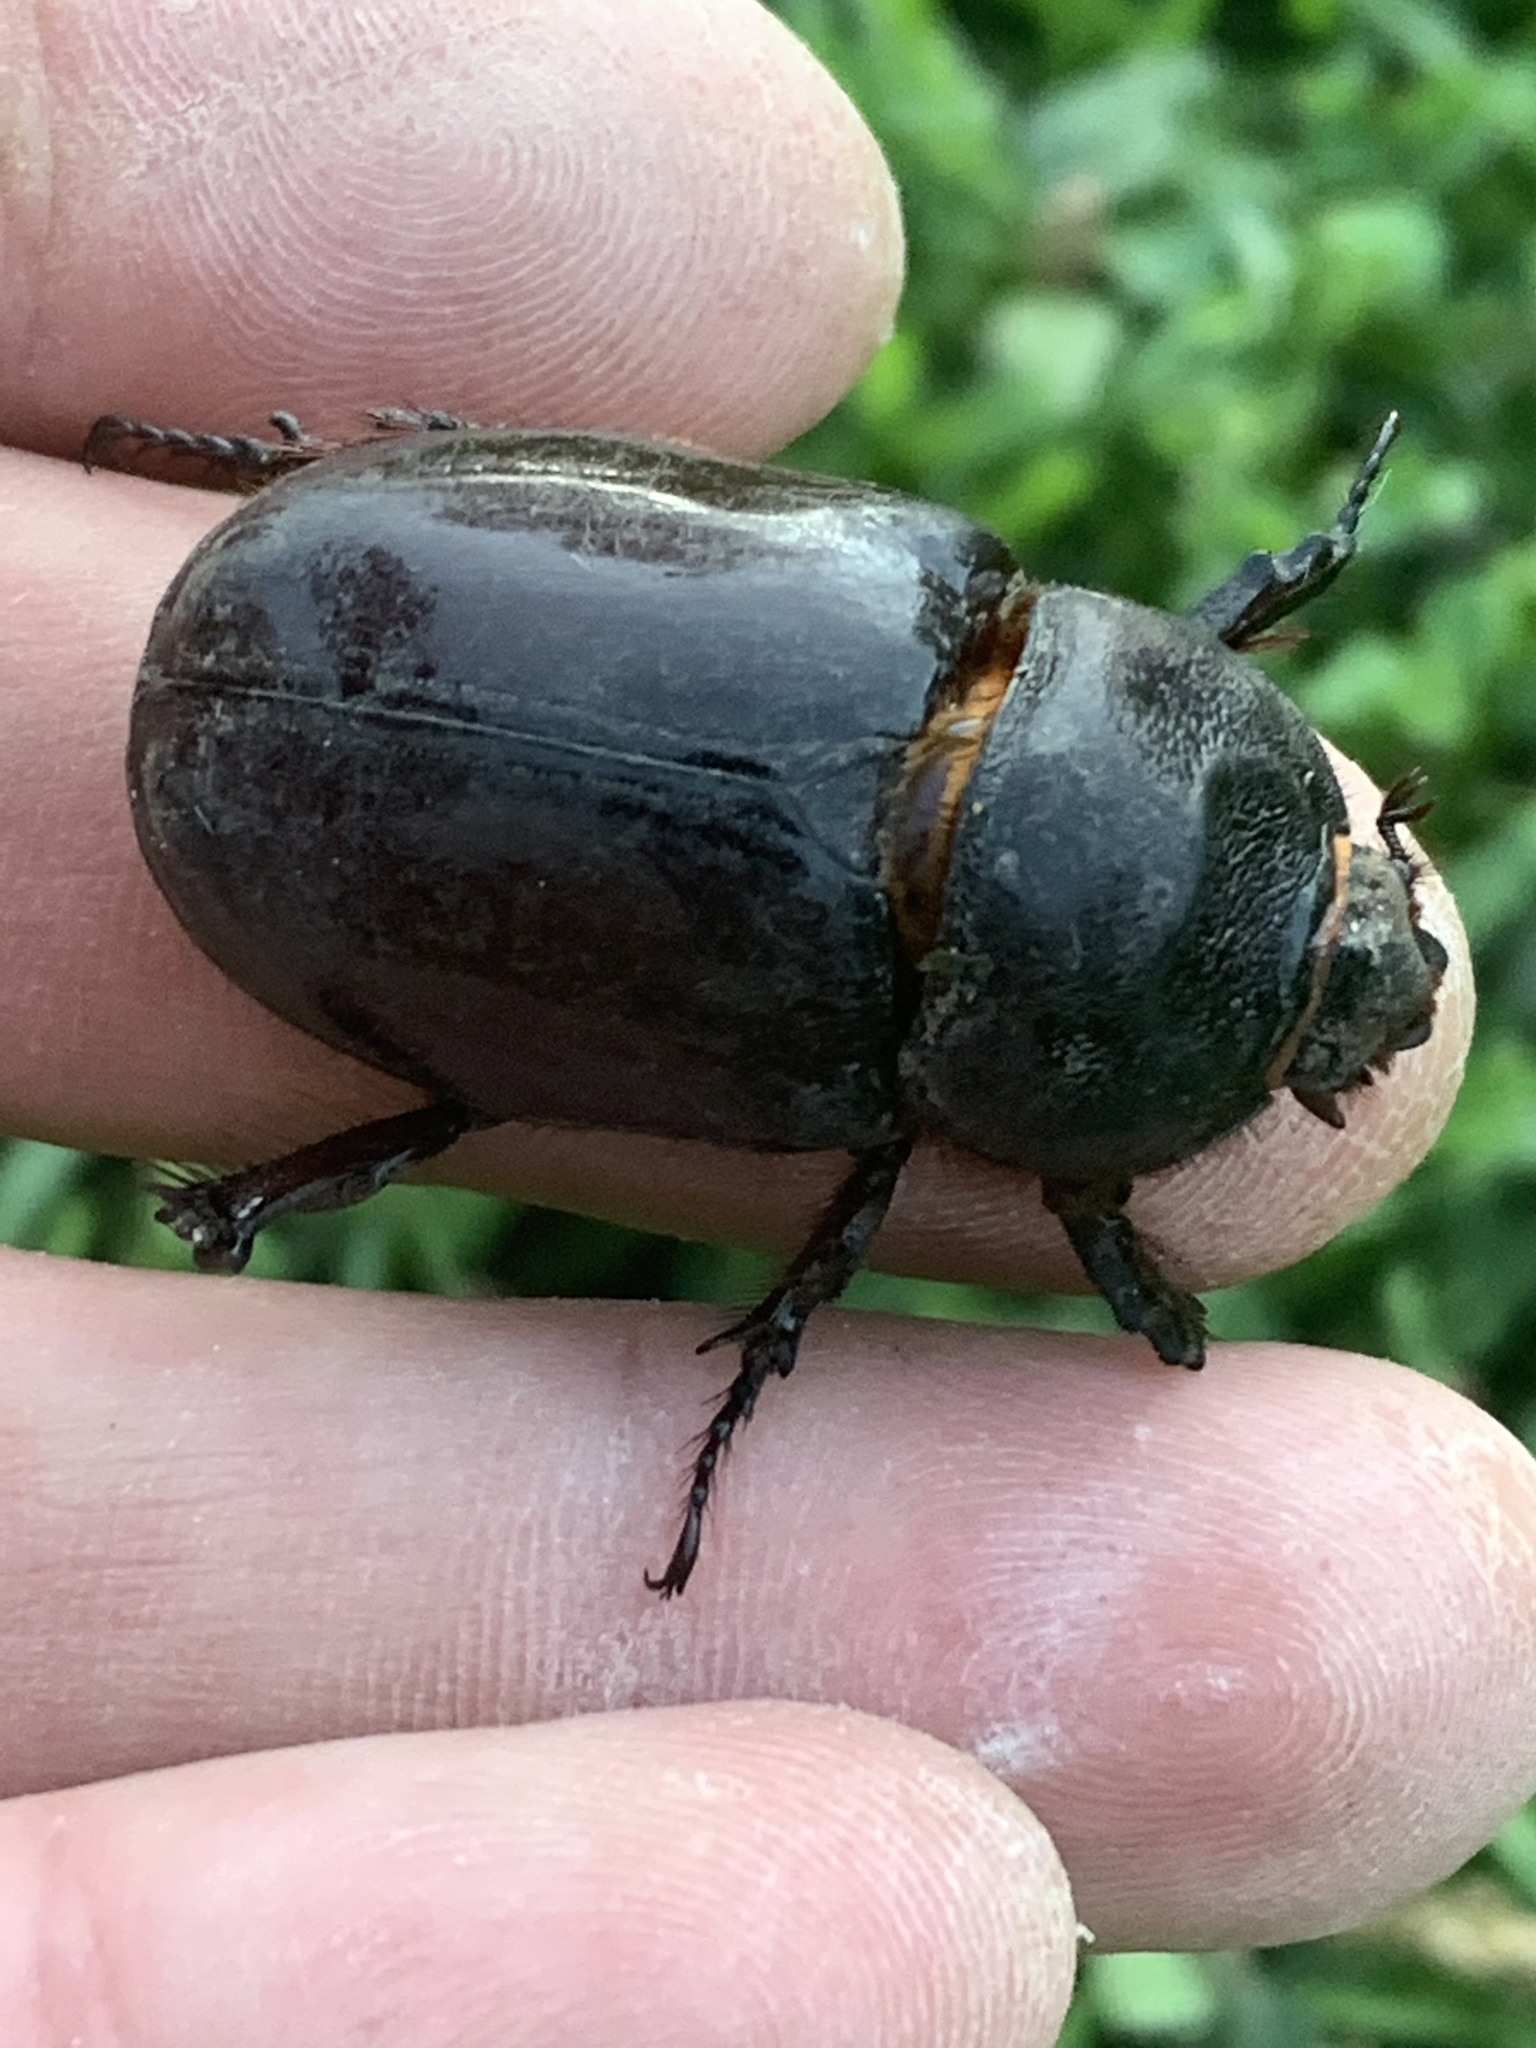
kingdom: Animalia
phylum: Arthropoda
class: Insecta
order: Coleoptera
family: Scarabaeidae
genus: Oryctes
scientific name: Oryctes nasicornis
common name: European rhinoceros beetle
